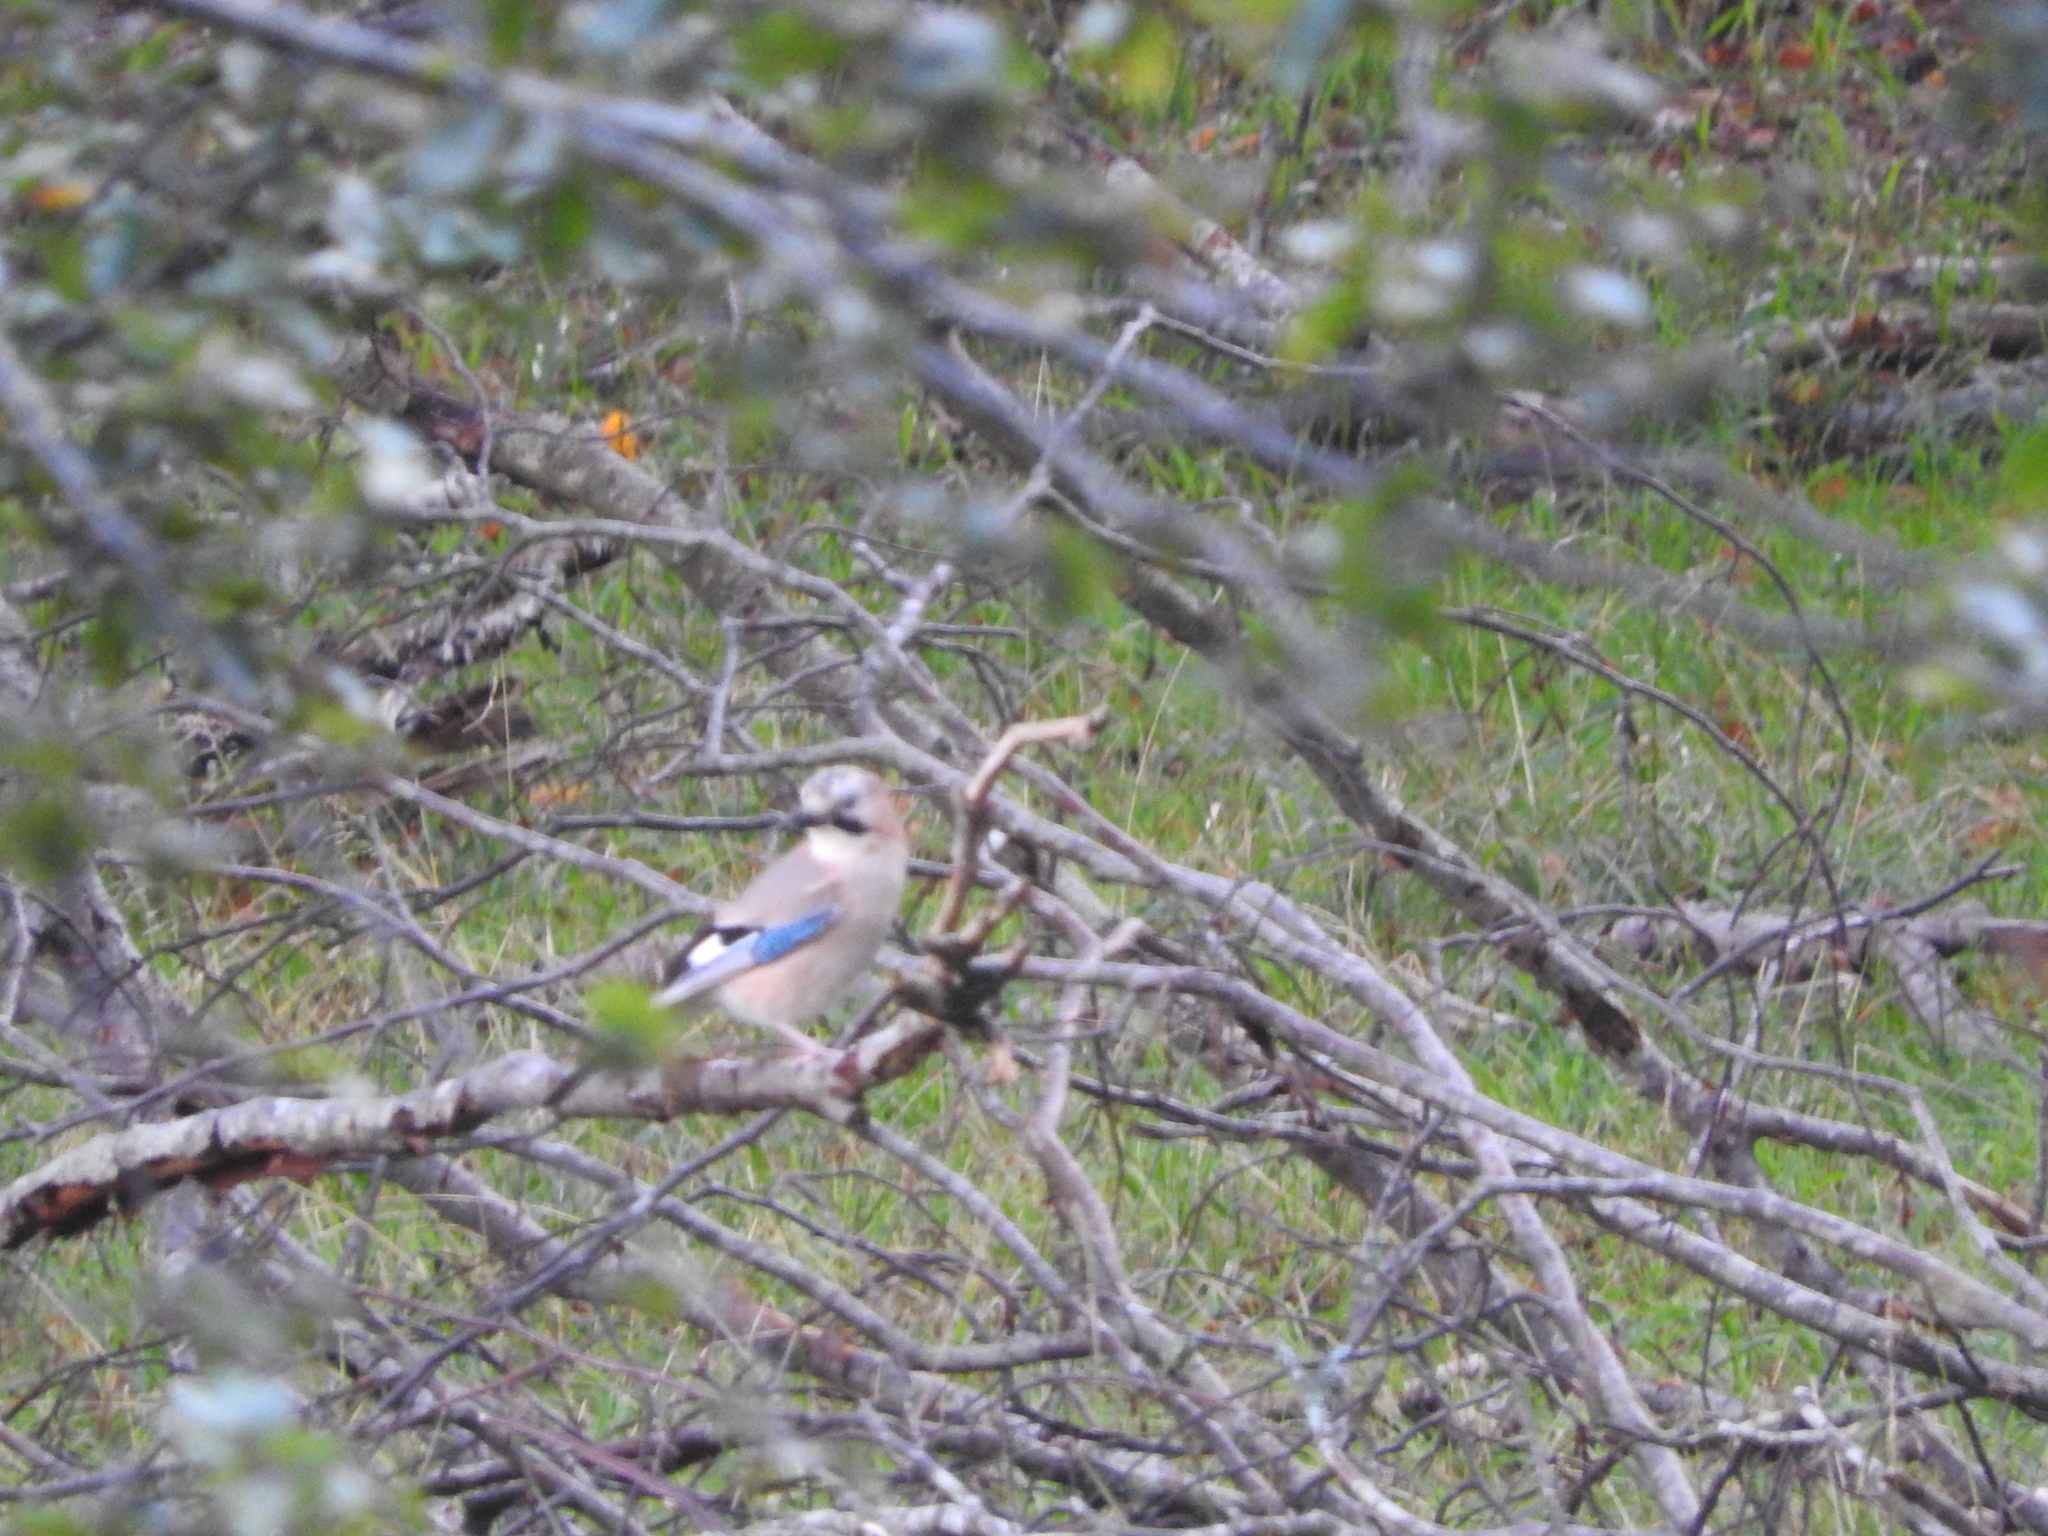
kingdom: Animalia
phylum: Chordata
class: Aves
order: Passeriformes
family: Corvidae
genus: Garrulus
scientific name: Garrulus glandarius
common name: Eurasian jay
